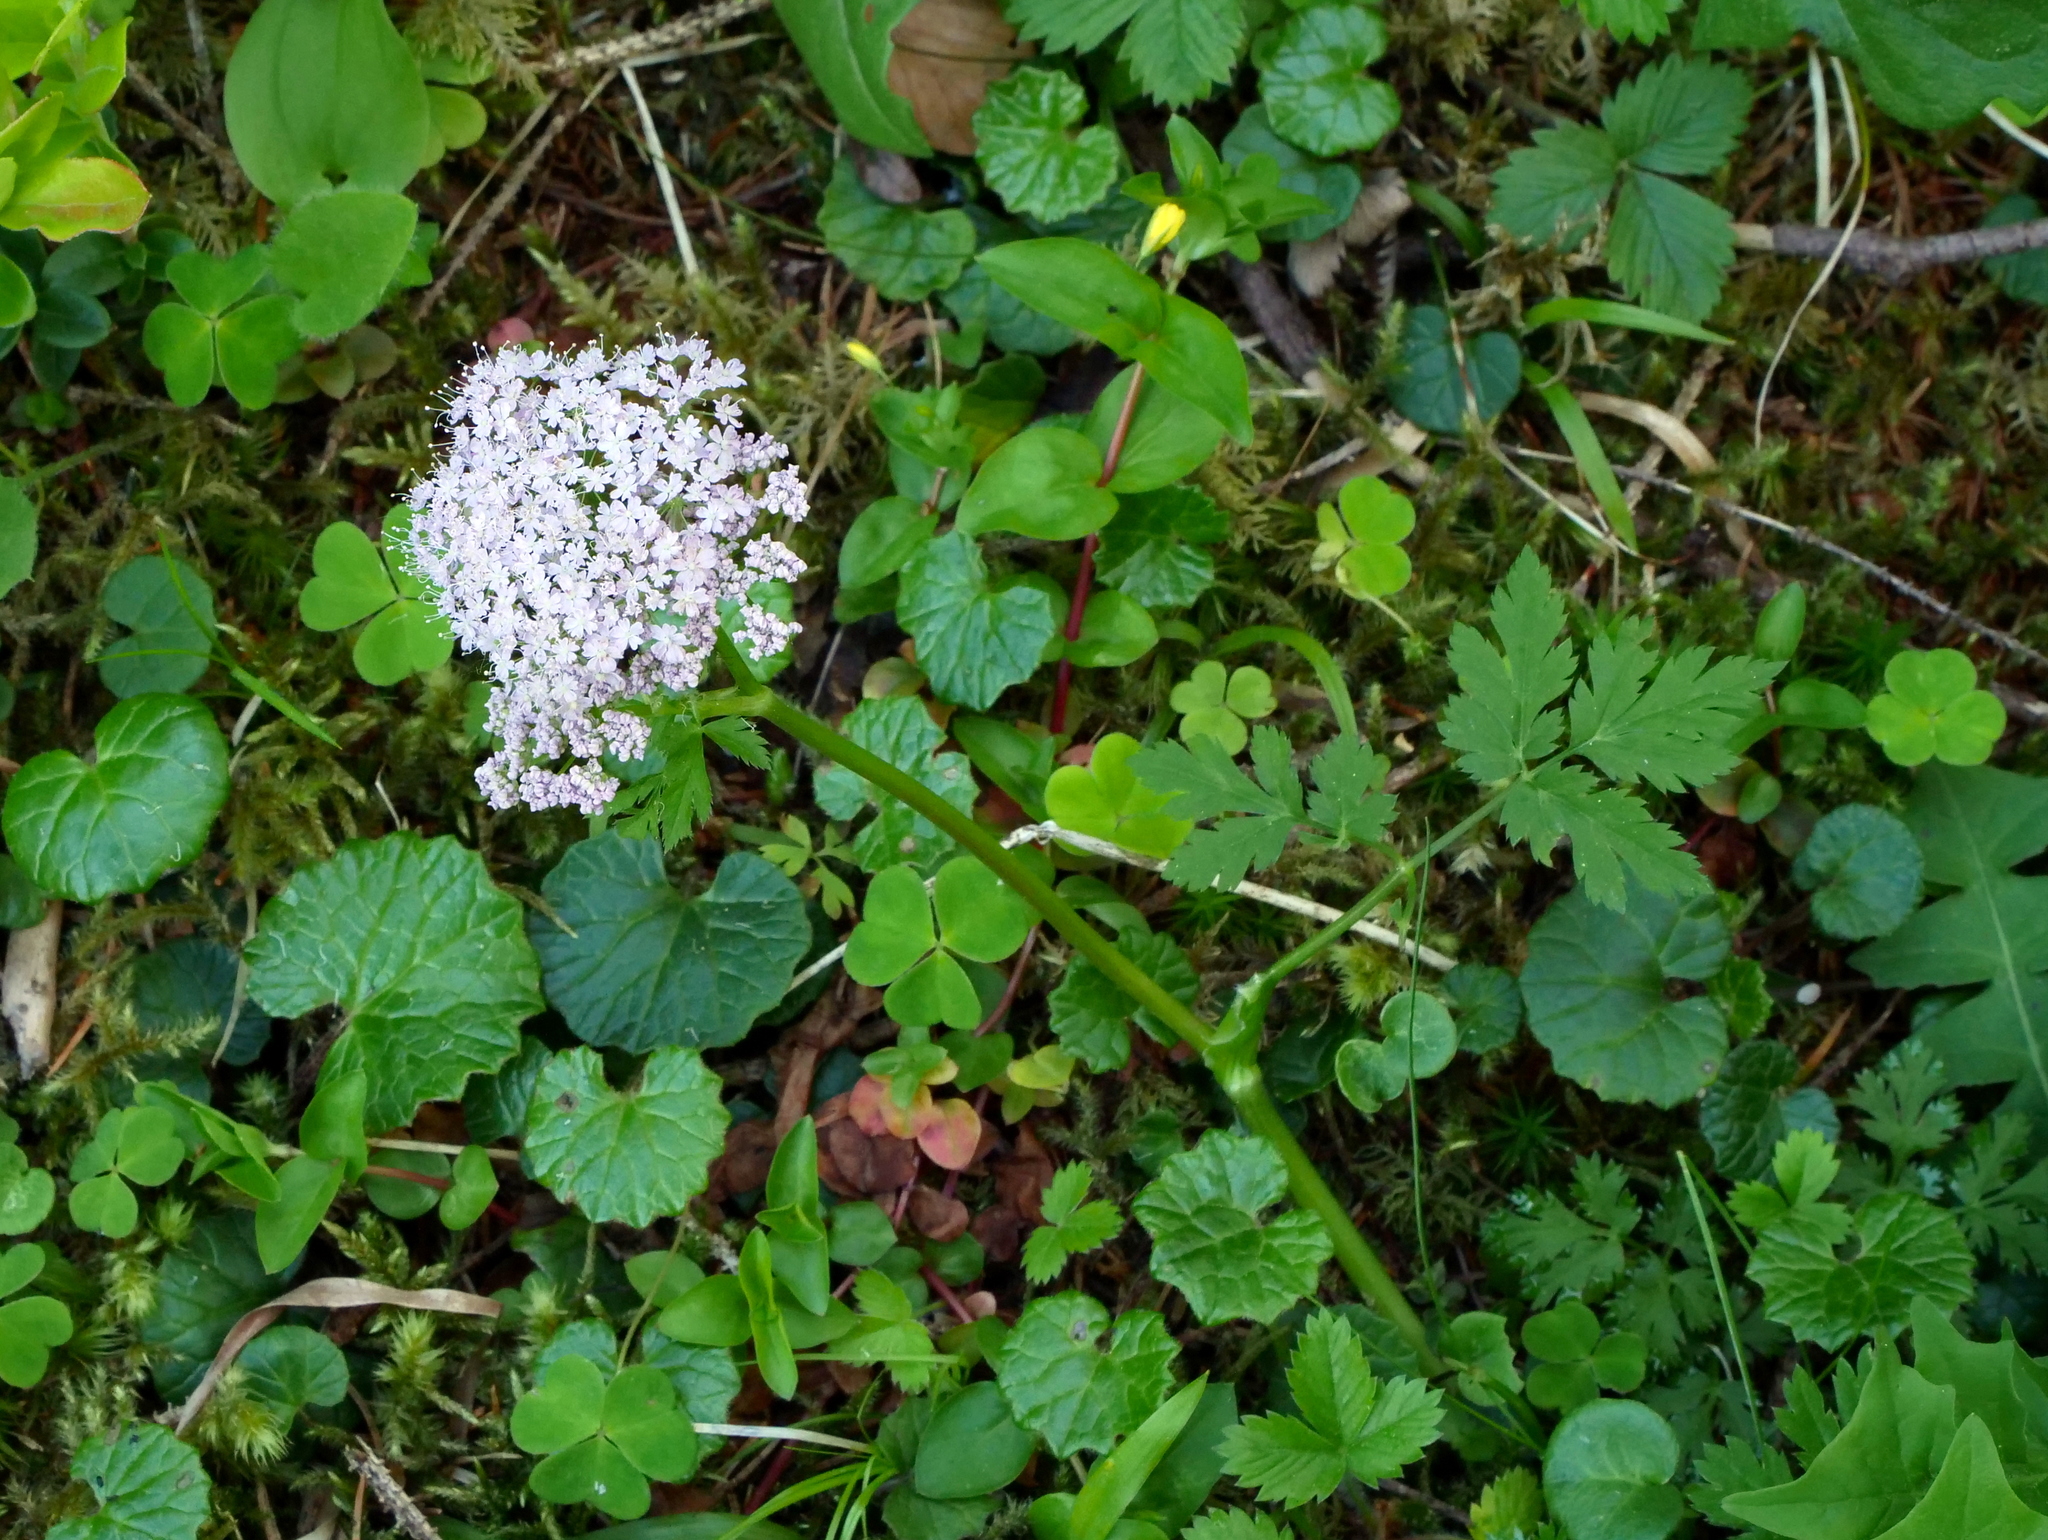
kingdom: Plantae
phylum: Tracheophyta
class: Magnoliopsida
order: Apiales
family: Apiaceae
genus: Chaerophyllum
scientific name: Chaerophyllum hirsutum
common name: Hairy chervil
